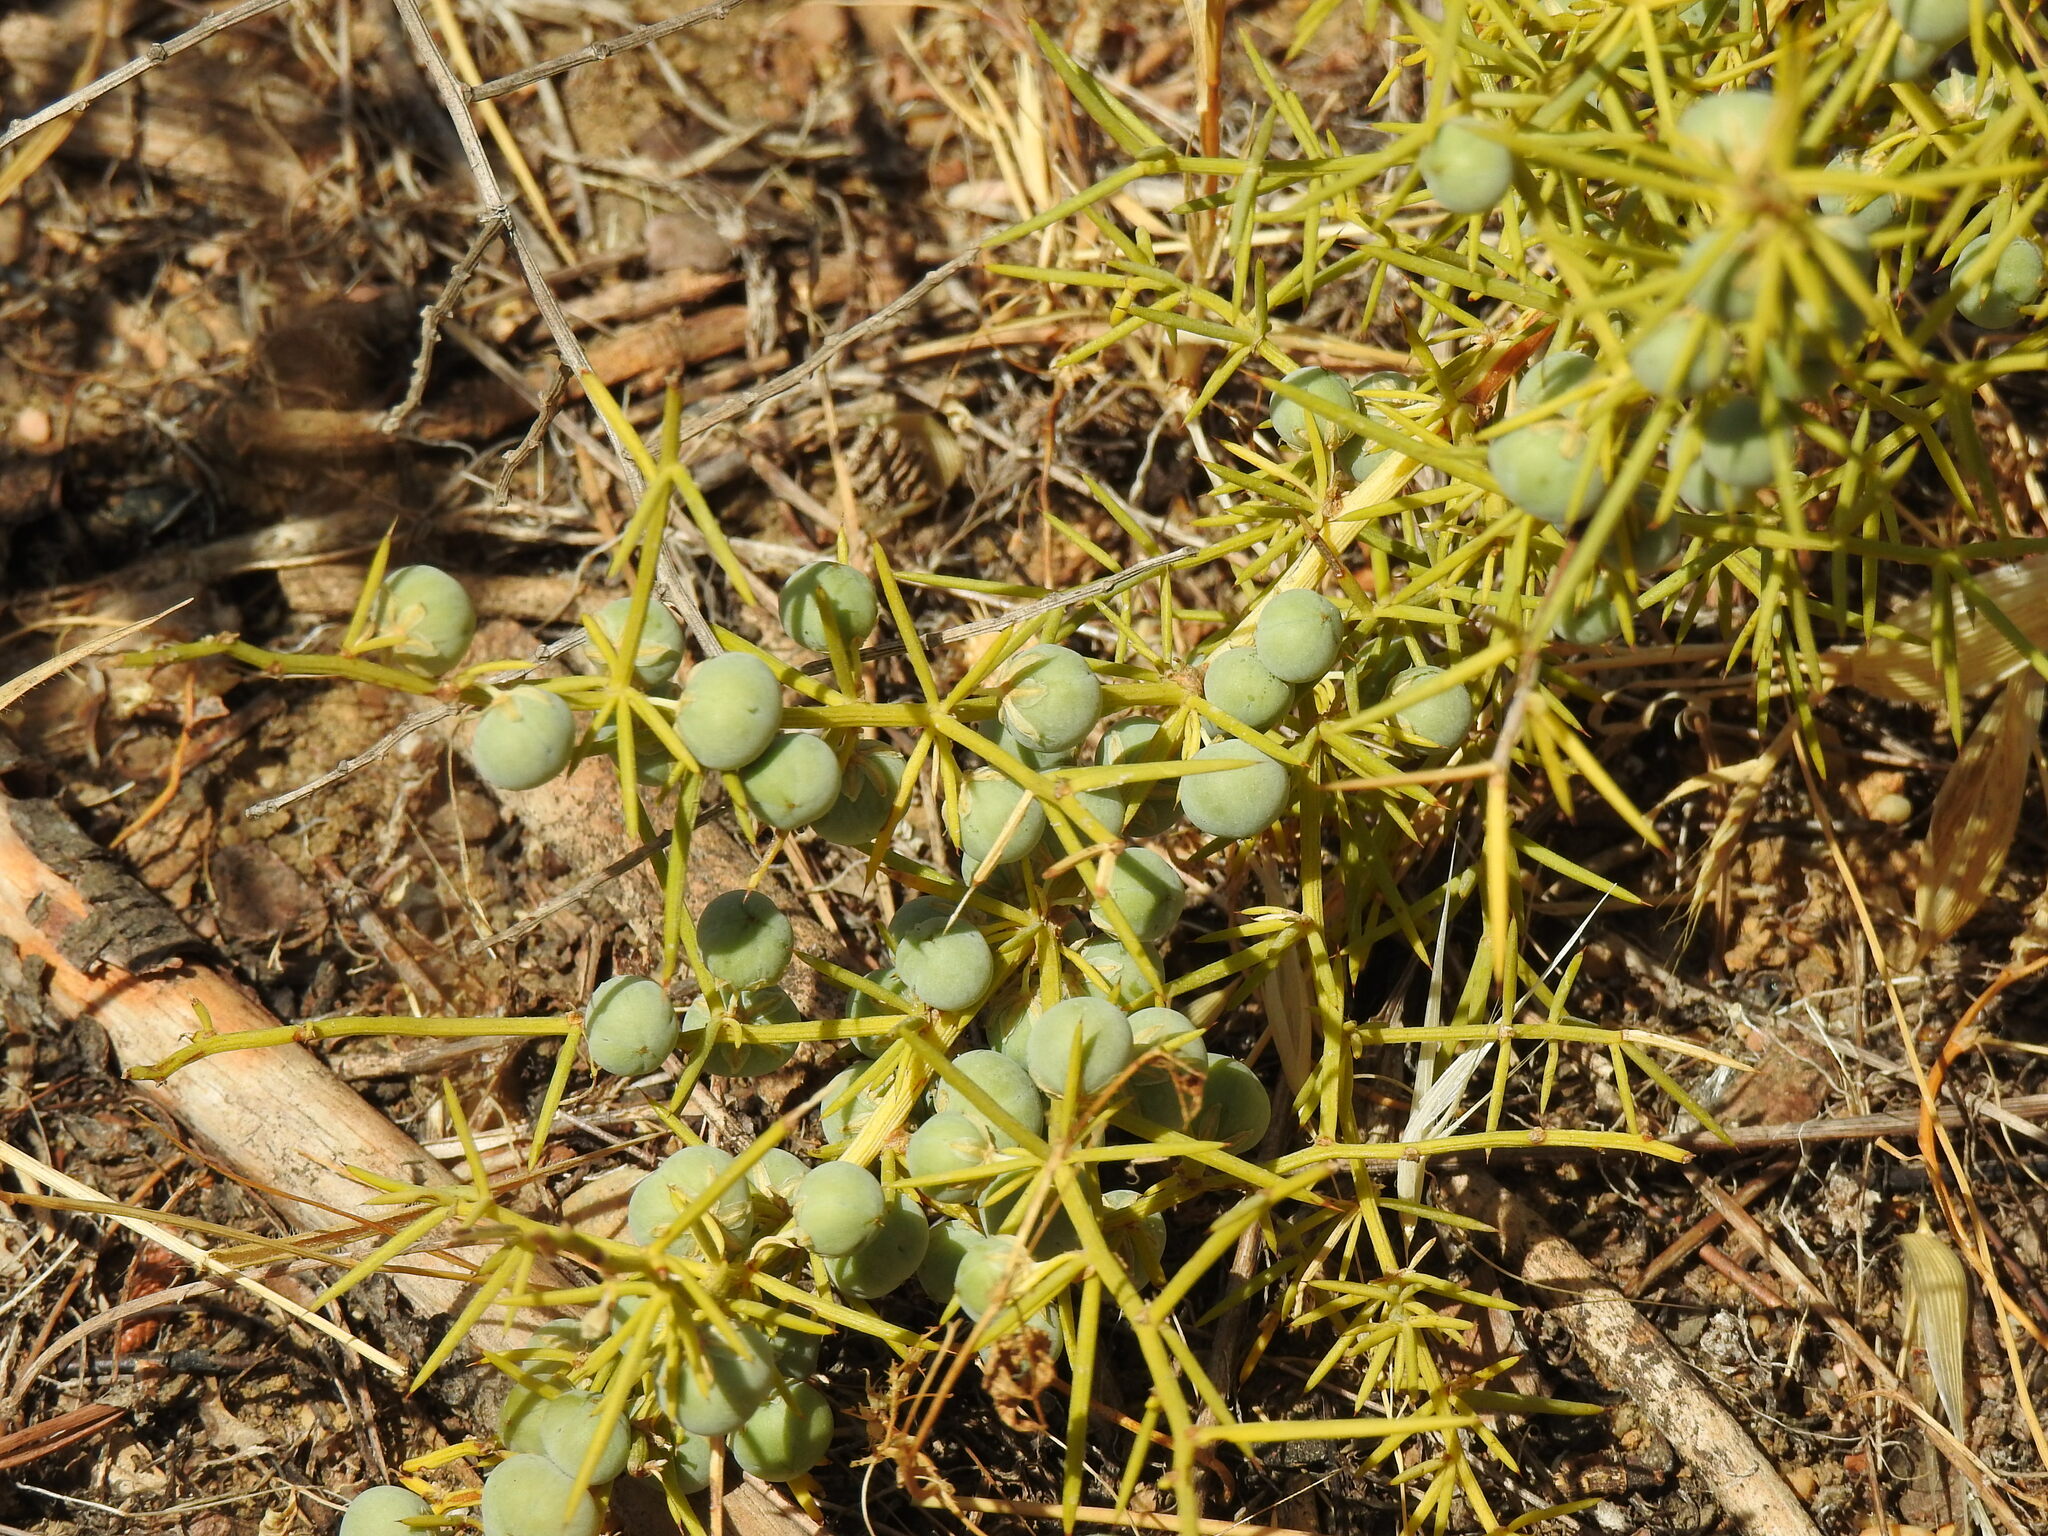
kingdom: Plantae
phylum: Tracheophyta
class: Liliopsida
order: Asparagales
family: Asparagaceae
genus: Asparagus
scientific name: Asparagus aphyllus
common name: Mediterranean asparagus
